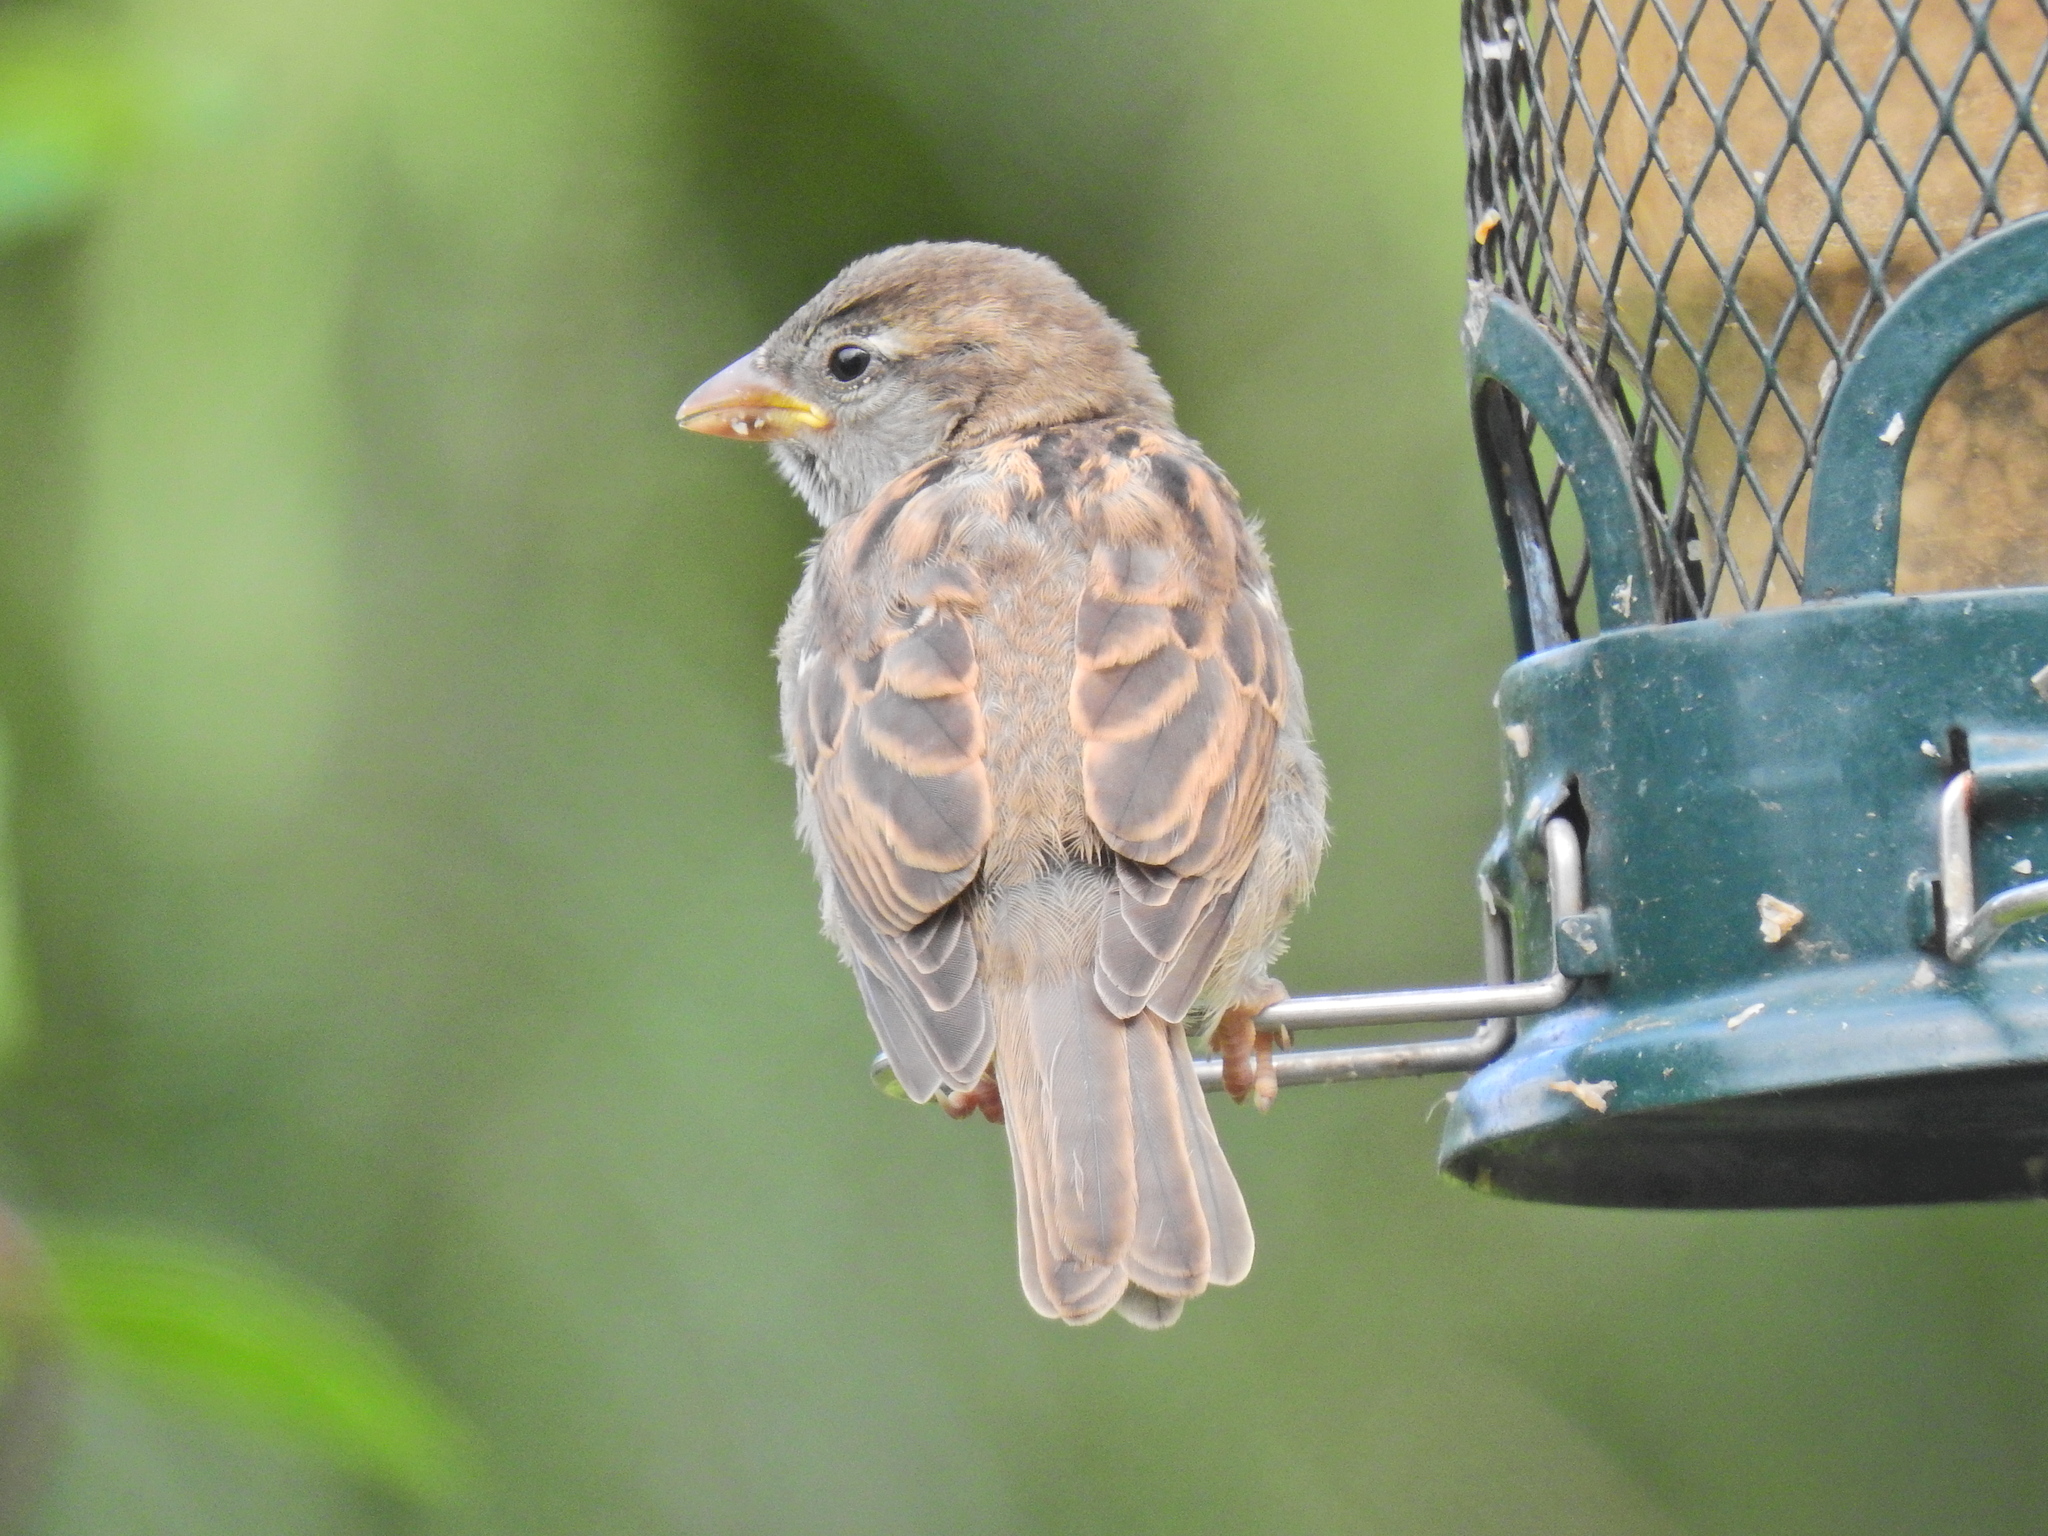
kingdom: Animalia
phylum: Chordata
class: Aves
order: Passeriformes
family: Passeridae
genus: Passer
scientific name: Passer domesticus
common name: House sparrow
